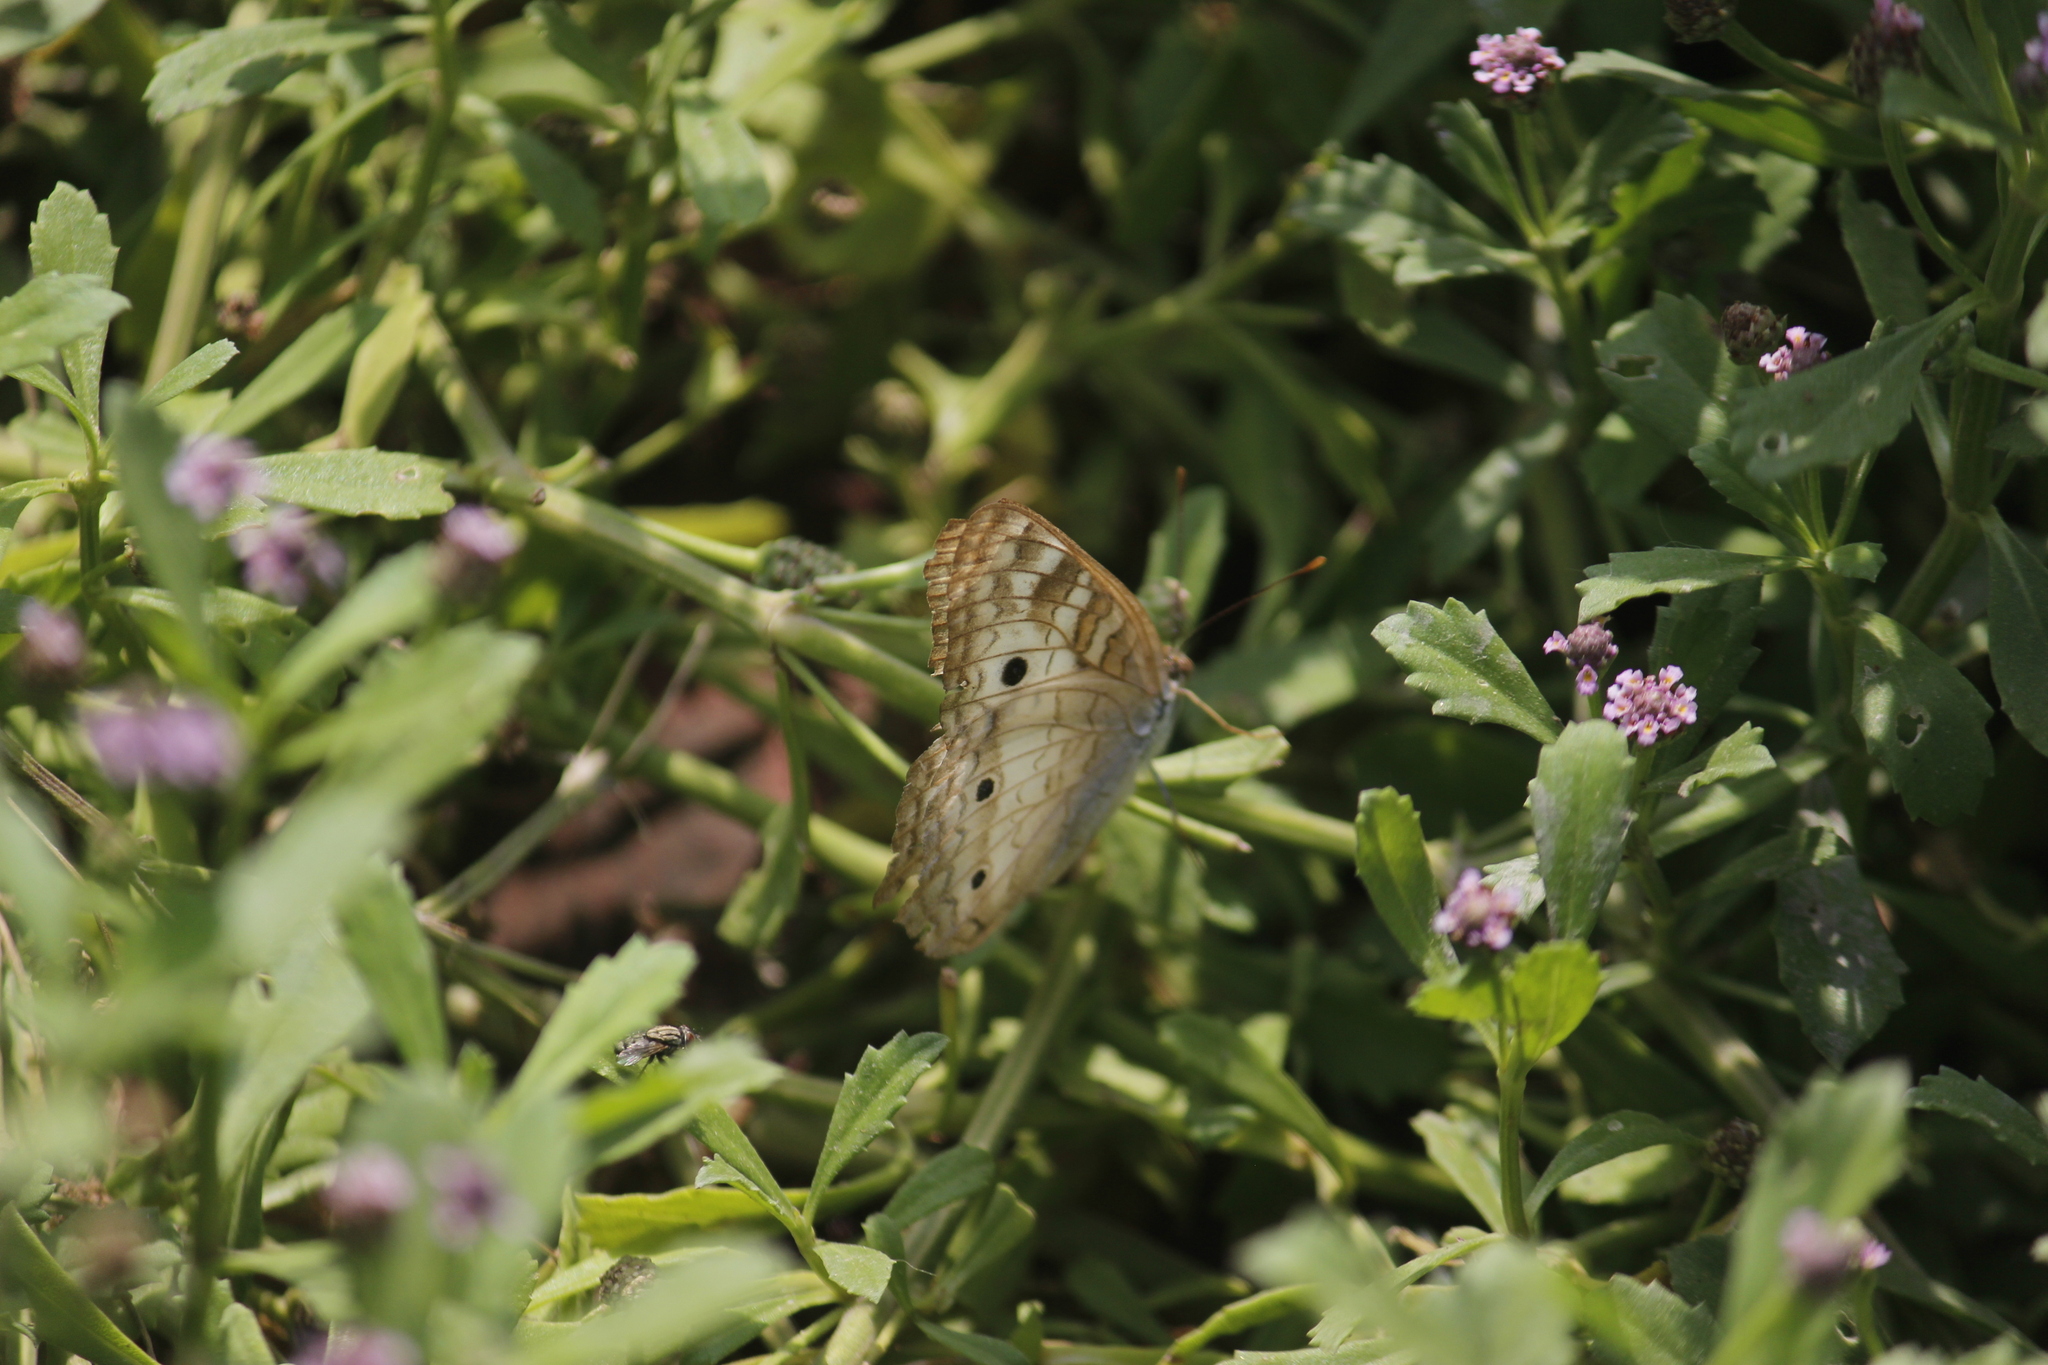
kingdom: Animalia
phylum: Arthropoda
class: Insecta
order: Lepidoptera
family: Nymphalidae
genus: Anartia
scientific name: Anartia jatrophae
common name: White peacock
